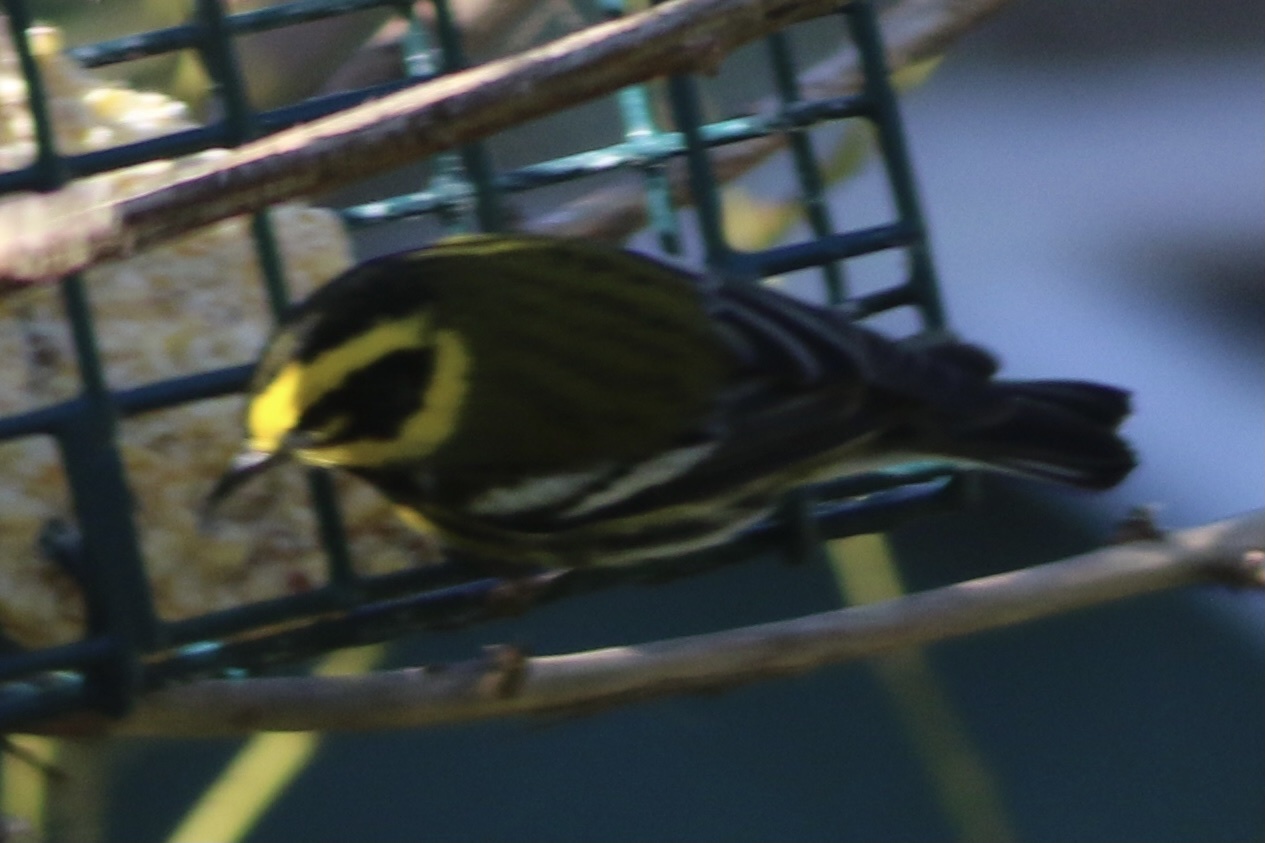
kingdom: Animalia
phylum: Chordata
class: Aves
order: Passeriformes
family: Parulidae
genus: Setophaga
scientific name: Setophaga townsendi
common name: Townsend's warbler
